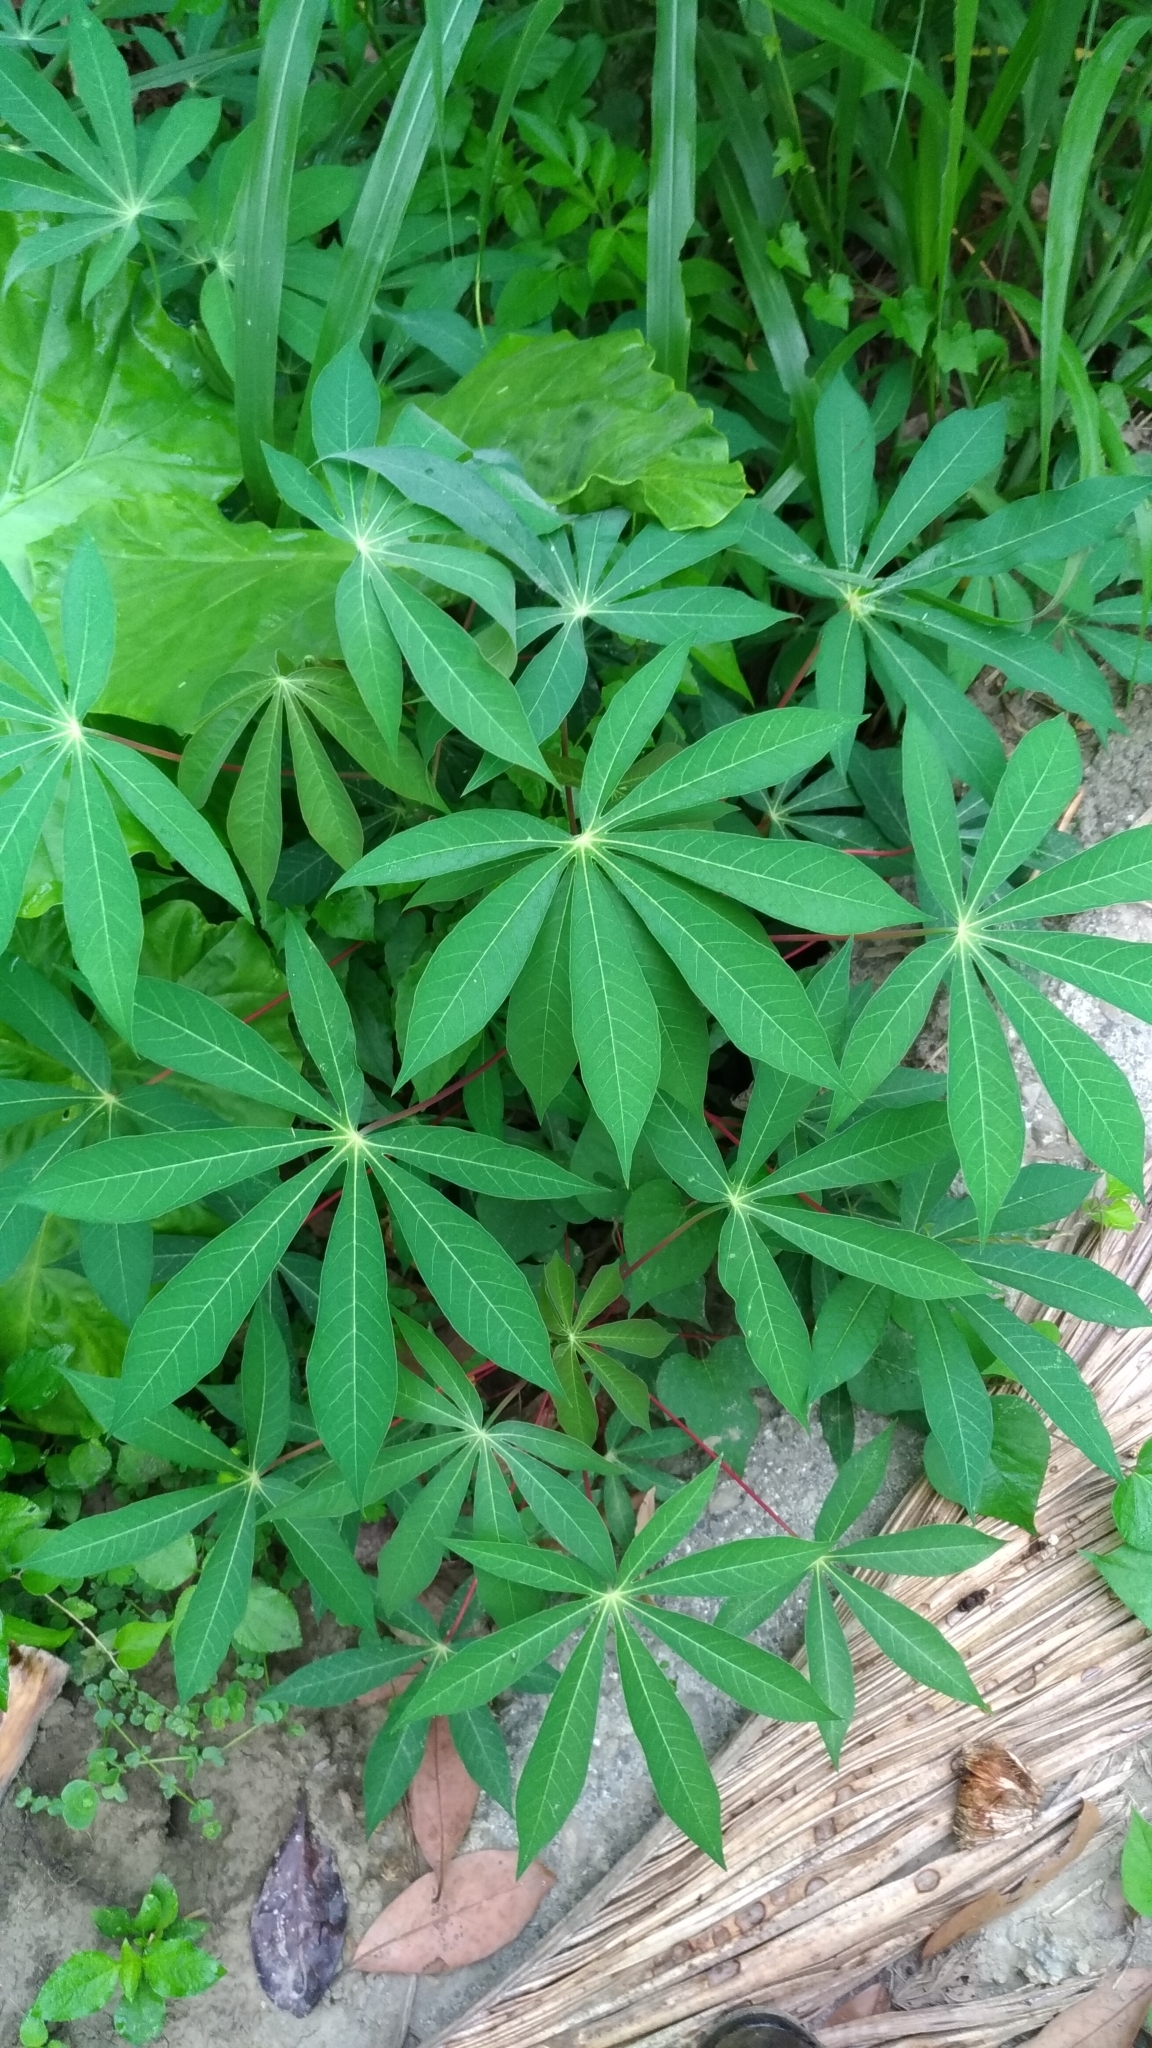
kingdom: Plantae
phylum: Tracheophyta
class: Magnoliopsida
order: Malpighiales
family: Euphorbiaceae
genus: Manihot
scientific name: Manihot esculenta
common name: Cassava
